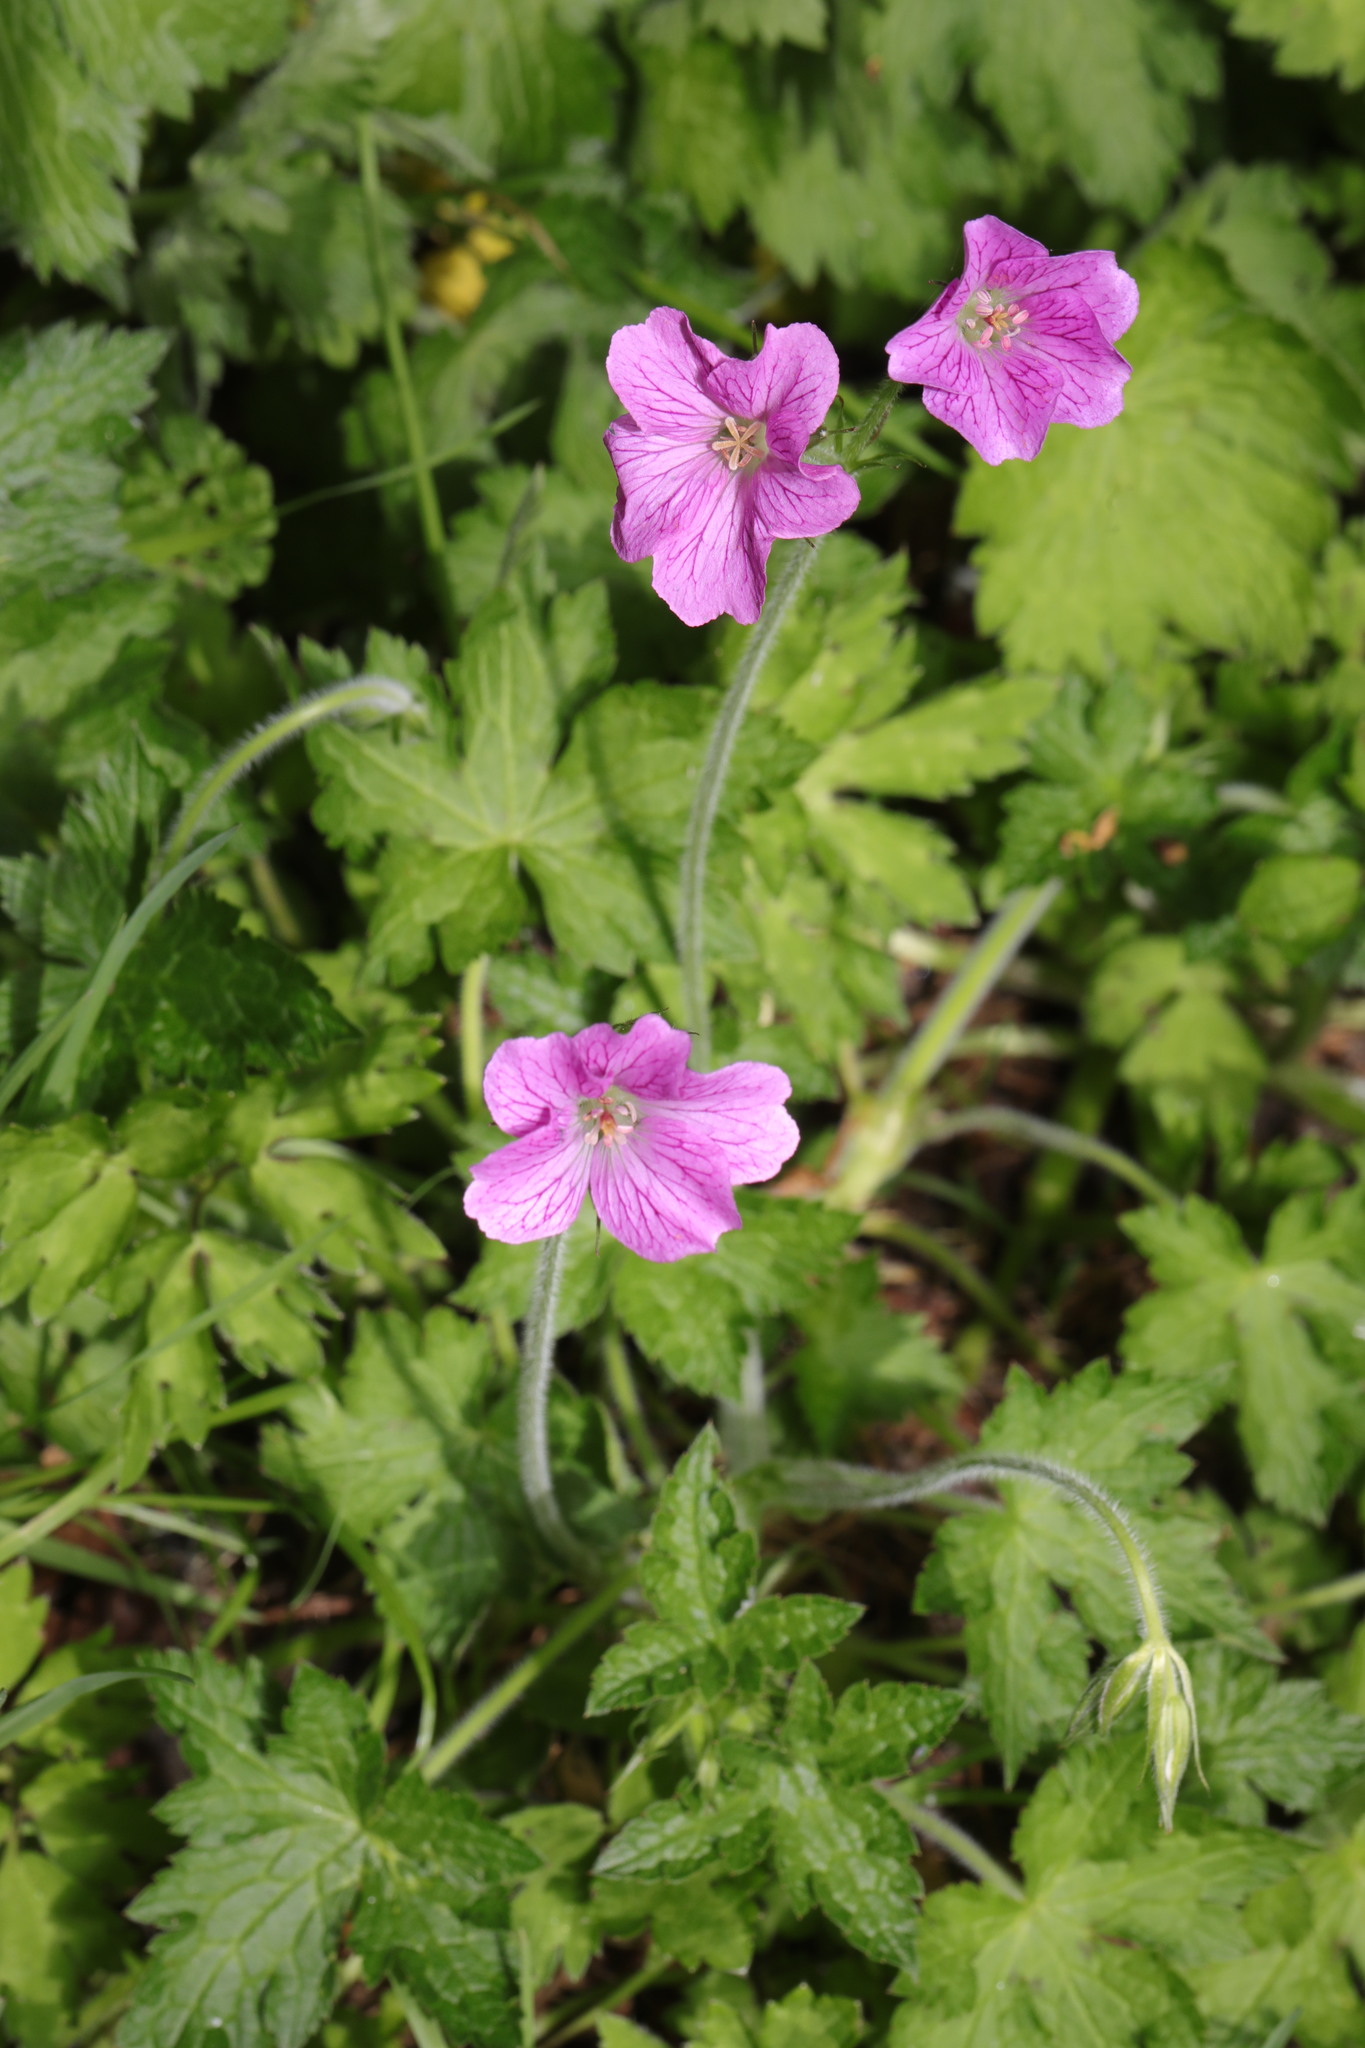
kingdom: Plantae
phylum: Tracheophyta
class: Magnoliopsida
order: Geraniales
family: Geraniaceae
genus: Geranium
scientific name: Geranium oxonianum
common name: Druce's crane's-bill
